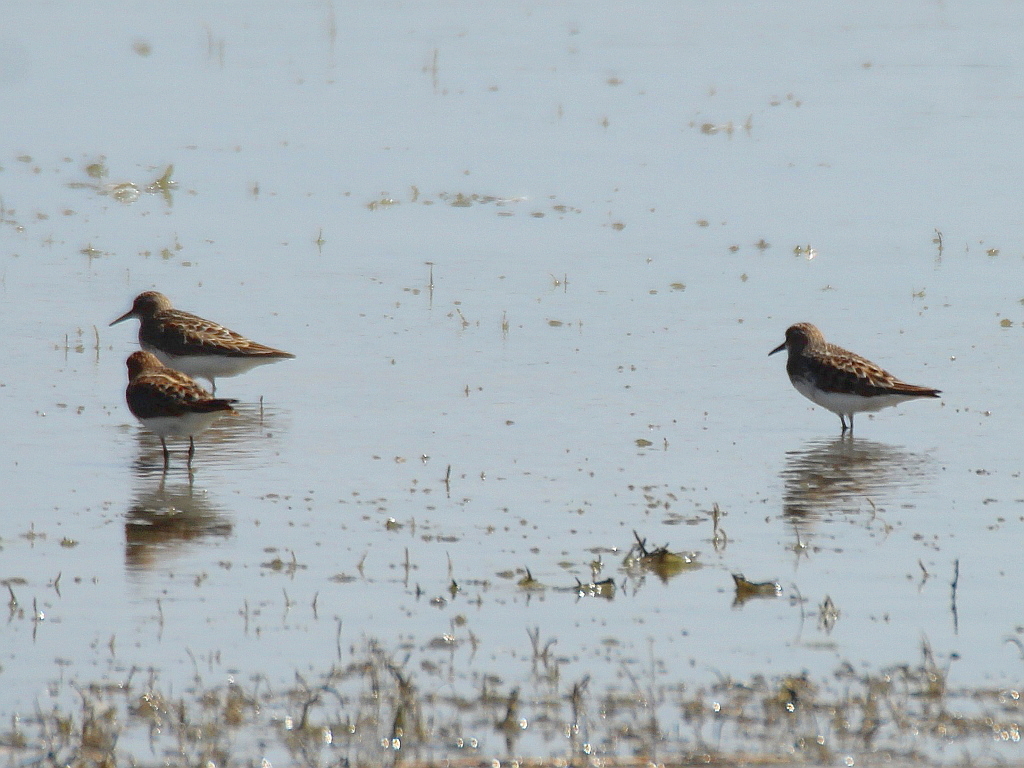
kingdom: Animalia
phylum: Chordata
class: Aves
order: Charadriiformes
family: Scolopacidae
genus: Calidris
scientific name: Calidris minuta
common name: Little stint
